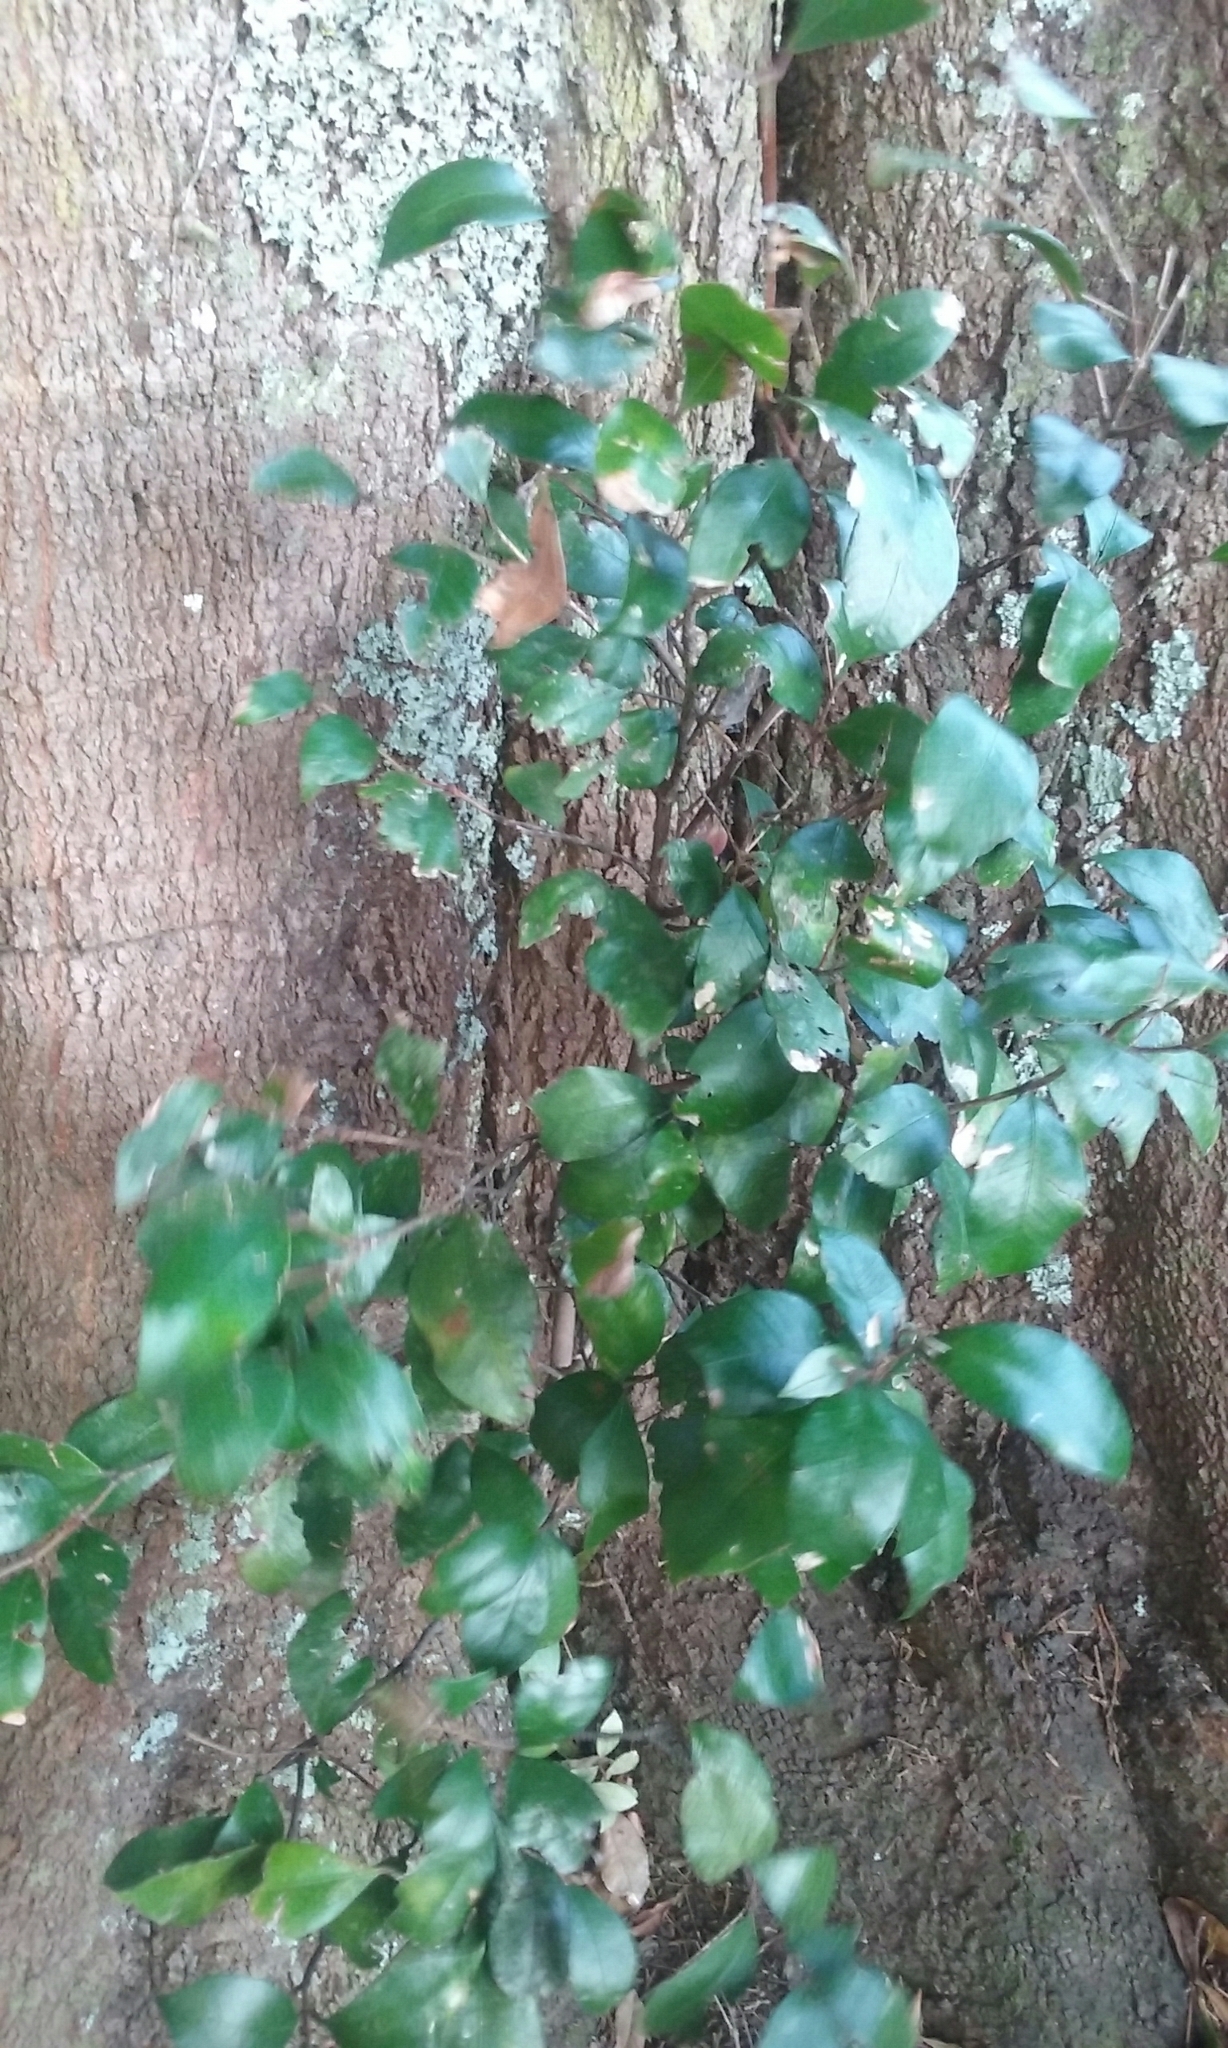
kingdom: Plantae
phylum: Tracheophyta
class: Magnoliopsida
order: Myrtales
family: Myrtaceae
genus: Syzygium
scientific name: Syzygium smithii
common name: Lilly-pilly
